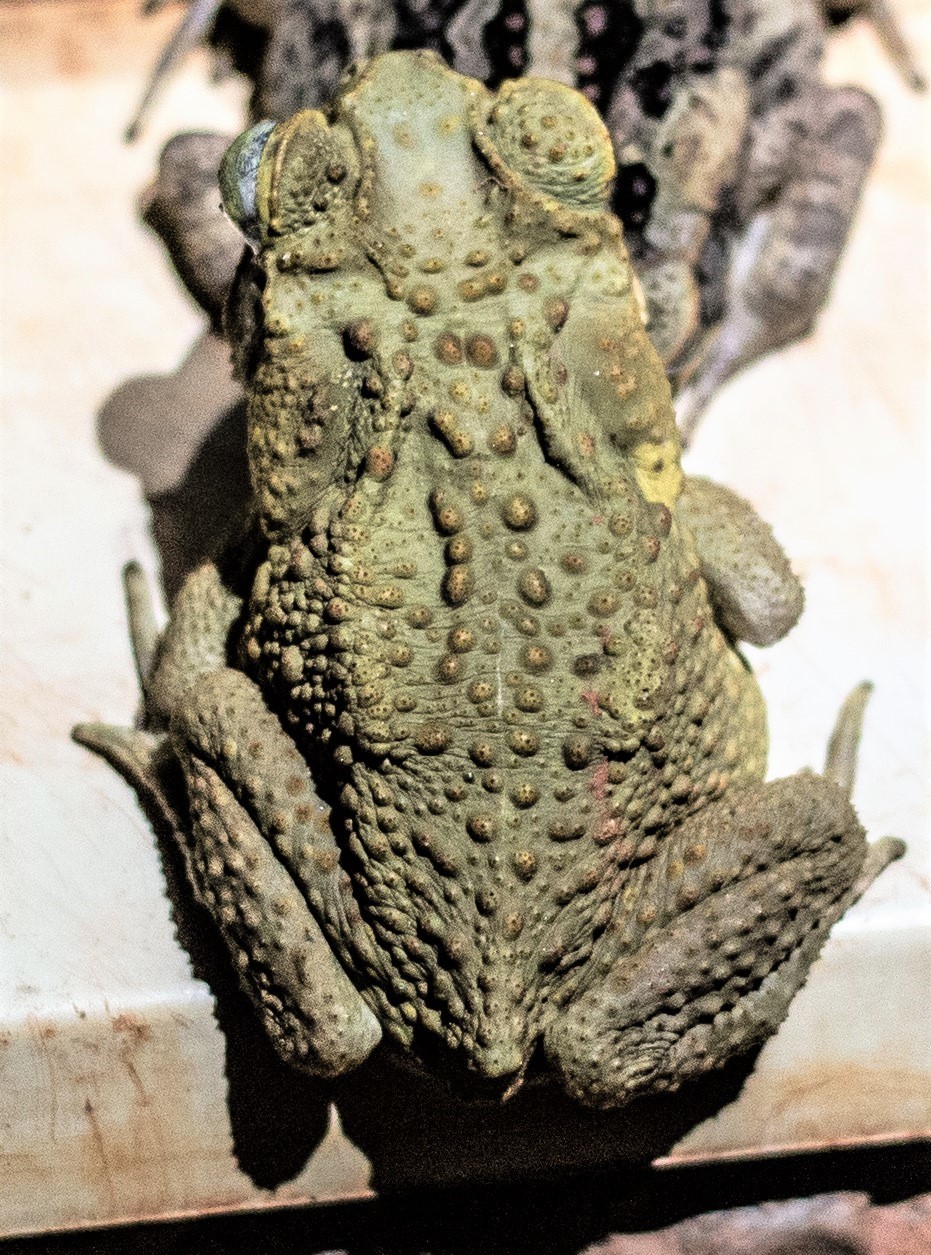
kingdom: Animalia
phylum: Chordata
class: Amphibia
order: Anura
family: Bufonidae
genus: Rhinella
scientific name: Rhinella marina
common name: Cane toad
